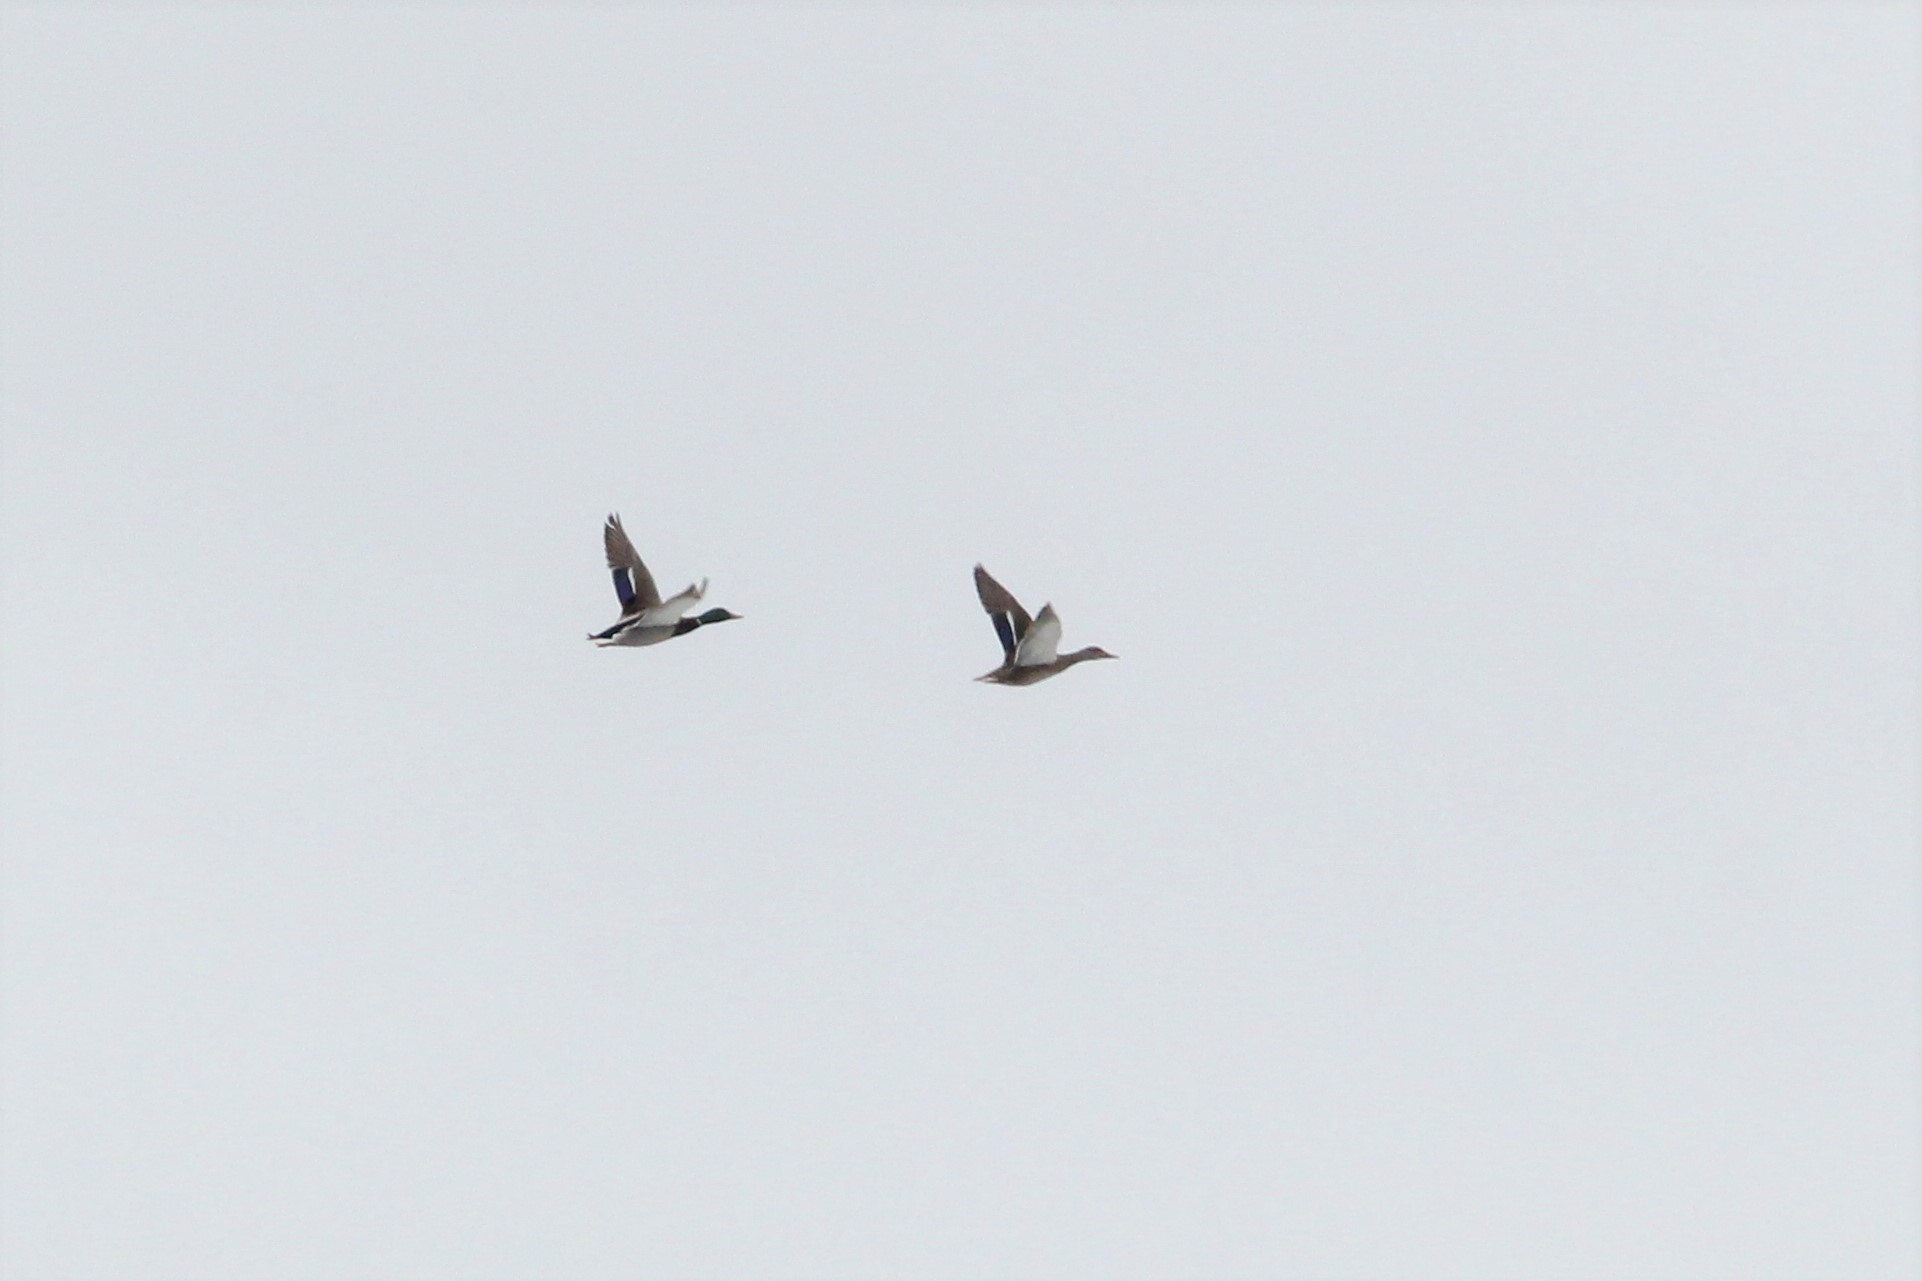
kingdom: Animalia
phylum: Chordata
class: Aves
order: Anseriformes
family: Anatidae
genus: Anas
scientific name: Anas platyrhynchos
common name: Mallard
